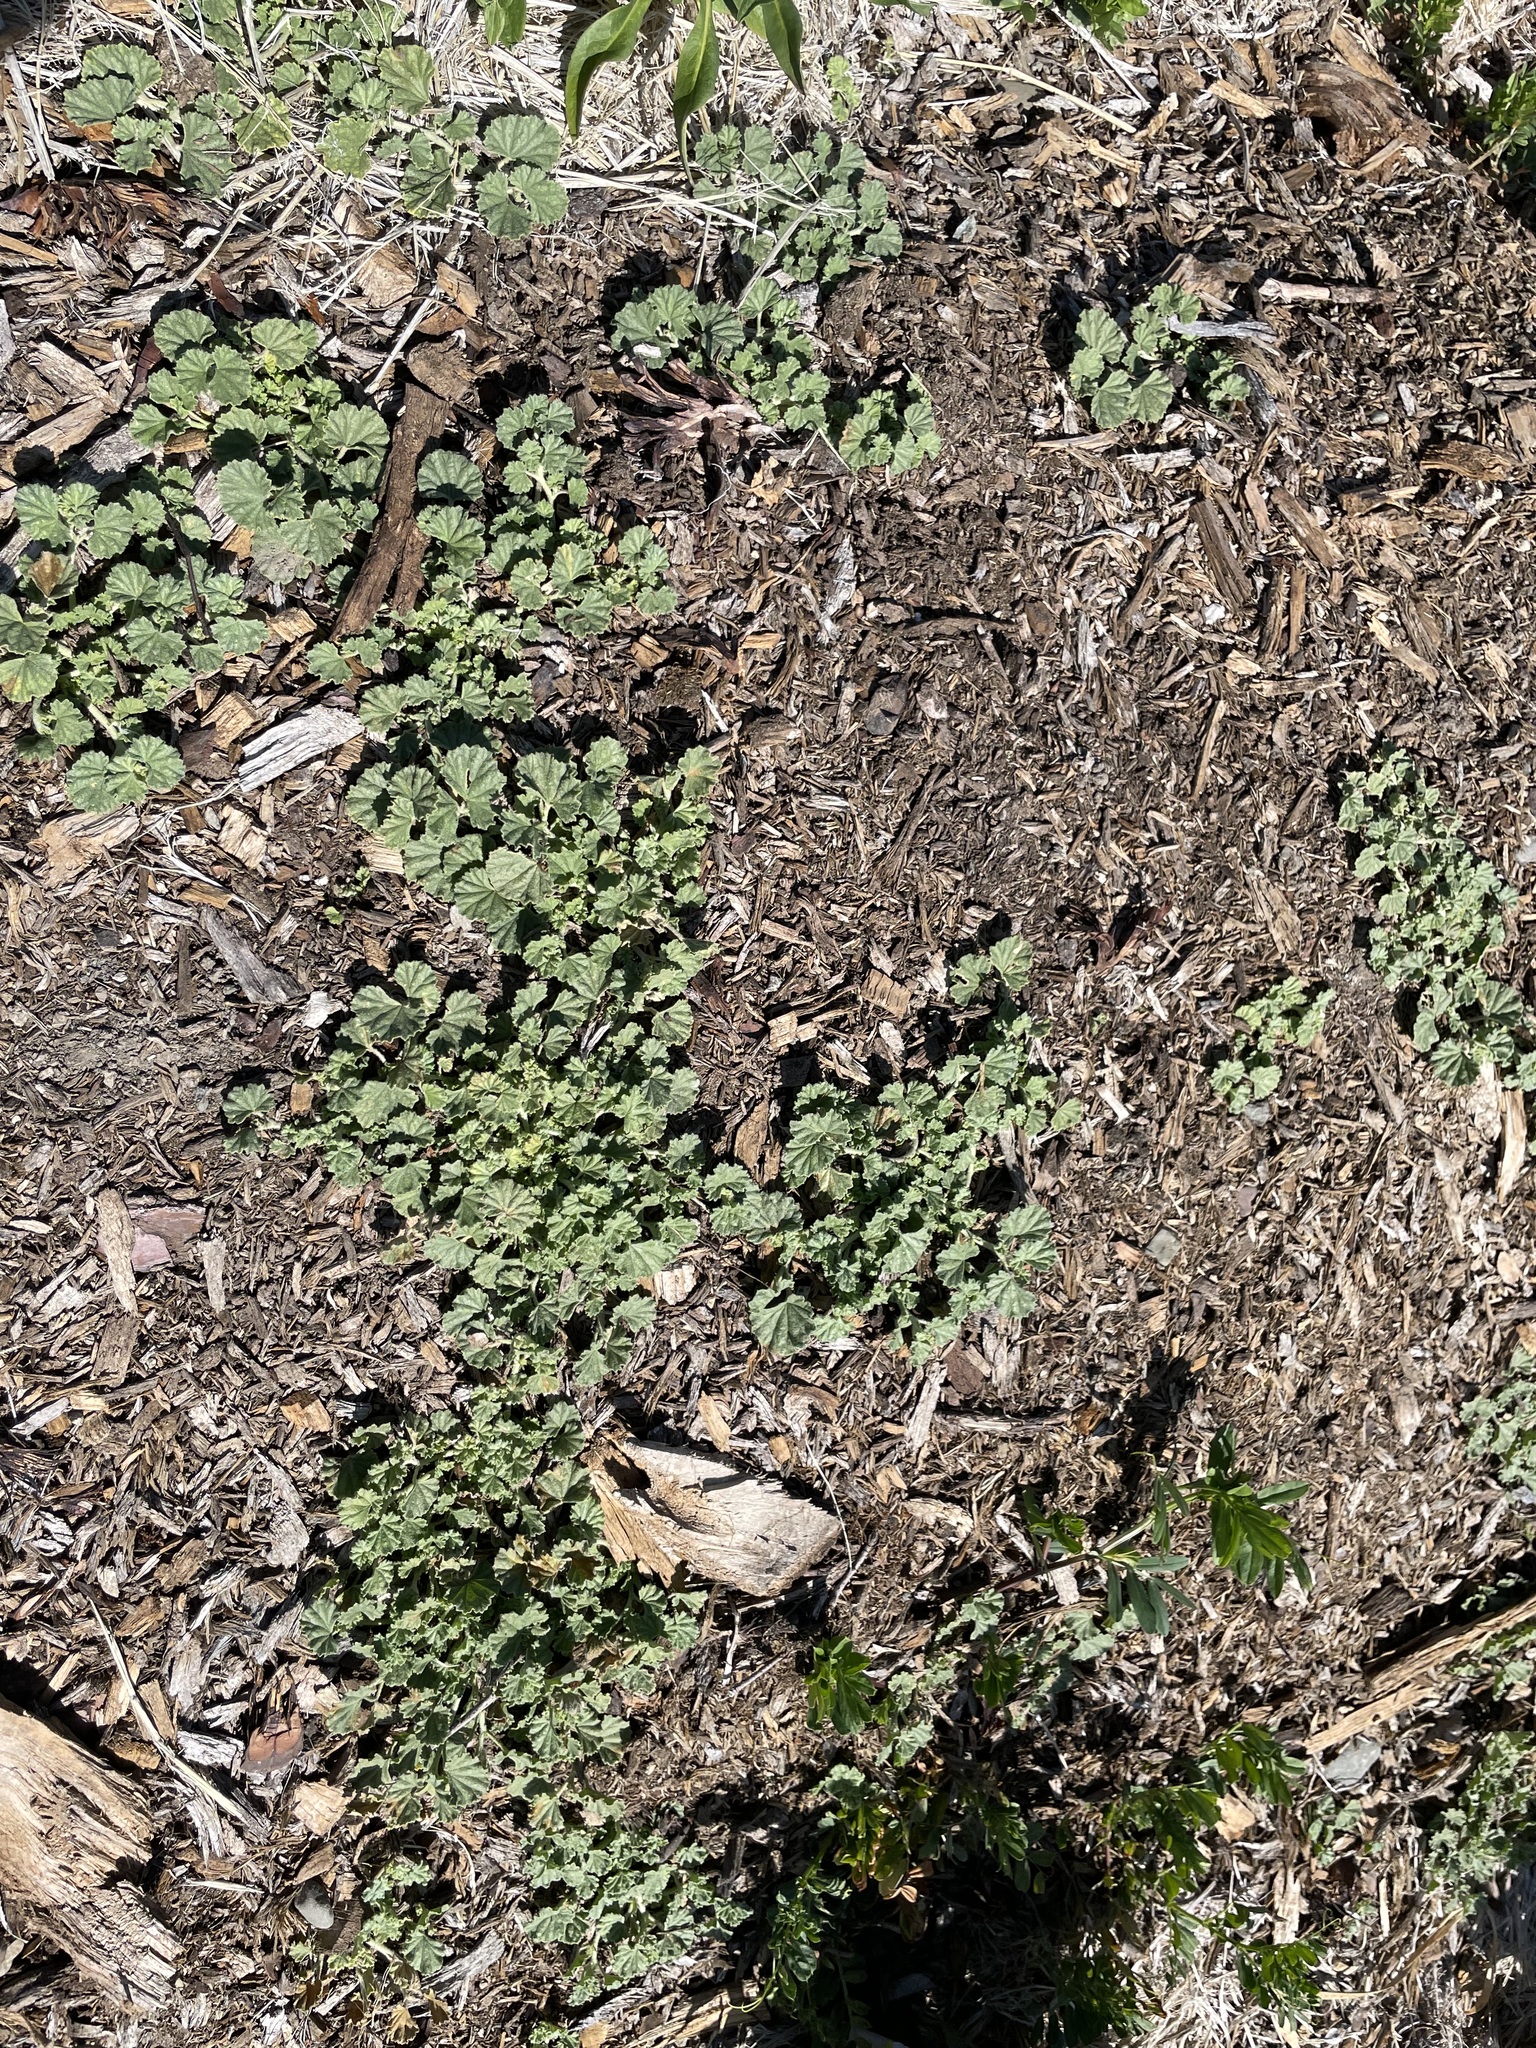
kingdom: Plantae
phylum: Tracheophyta
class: Magnoliopsida
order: Malvales
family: Malvaceae
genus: Malvella
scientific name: Malvella leprosa
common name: Alkali-mallow
